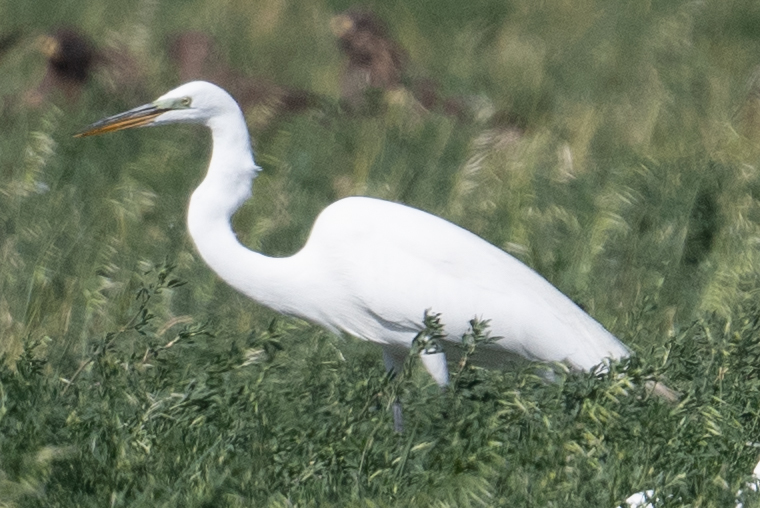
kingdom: Animalia
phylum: Chordata
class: Aves
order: Pelecaniformes
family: Ardeidae
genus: Ardea
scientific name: Ardea alba
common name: Great egret
